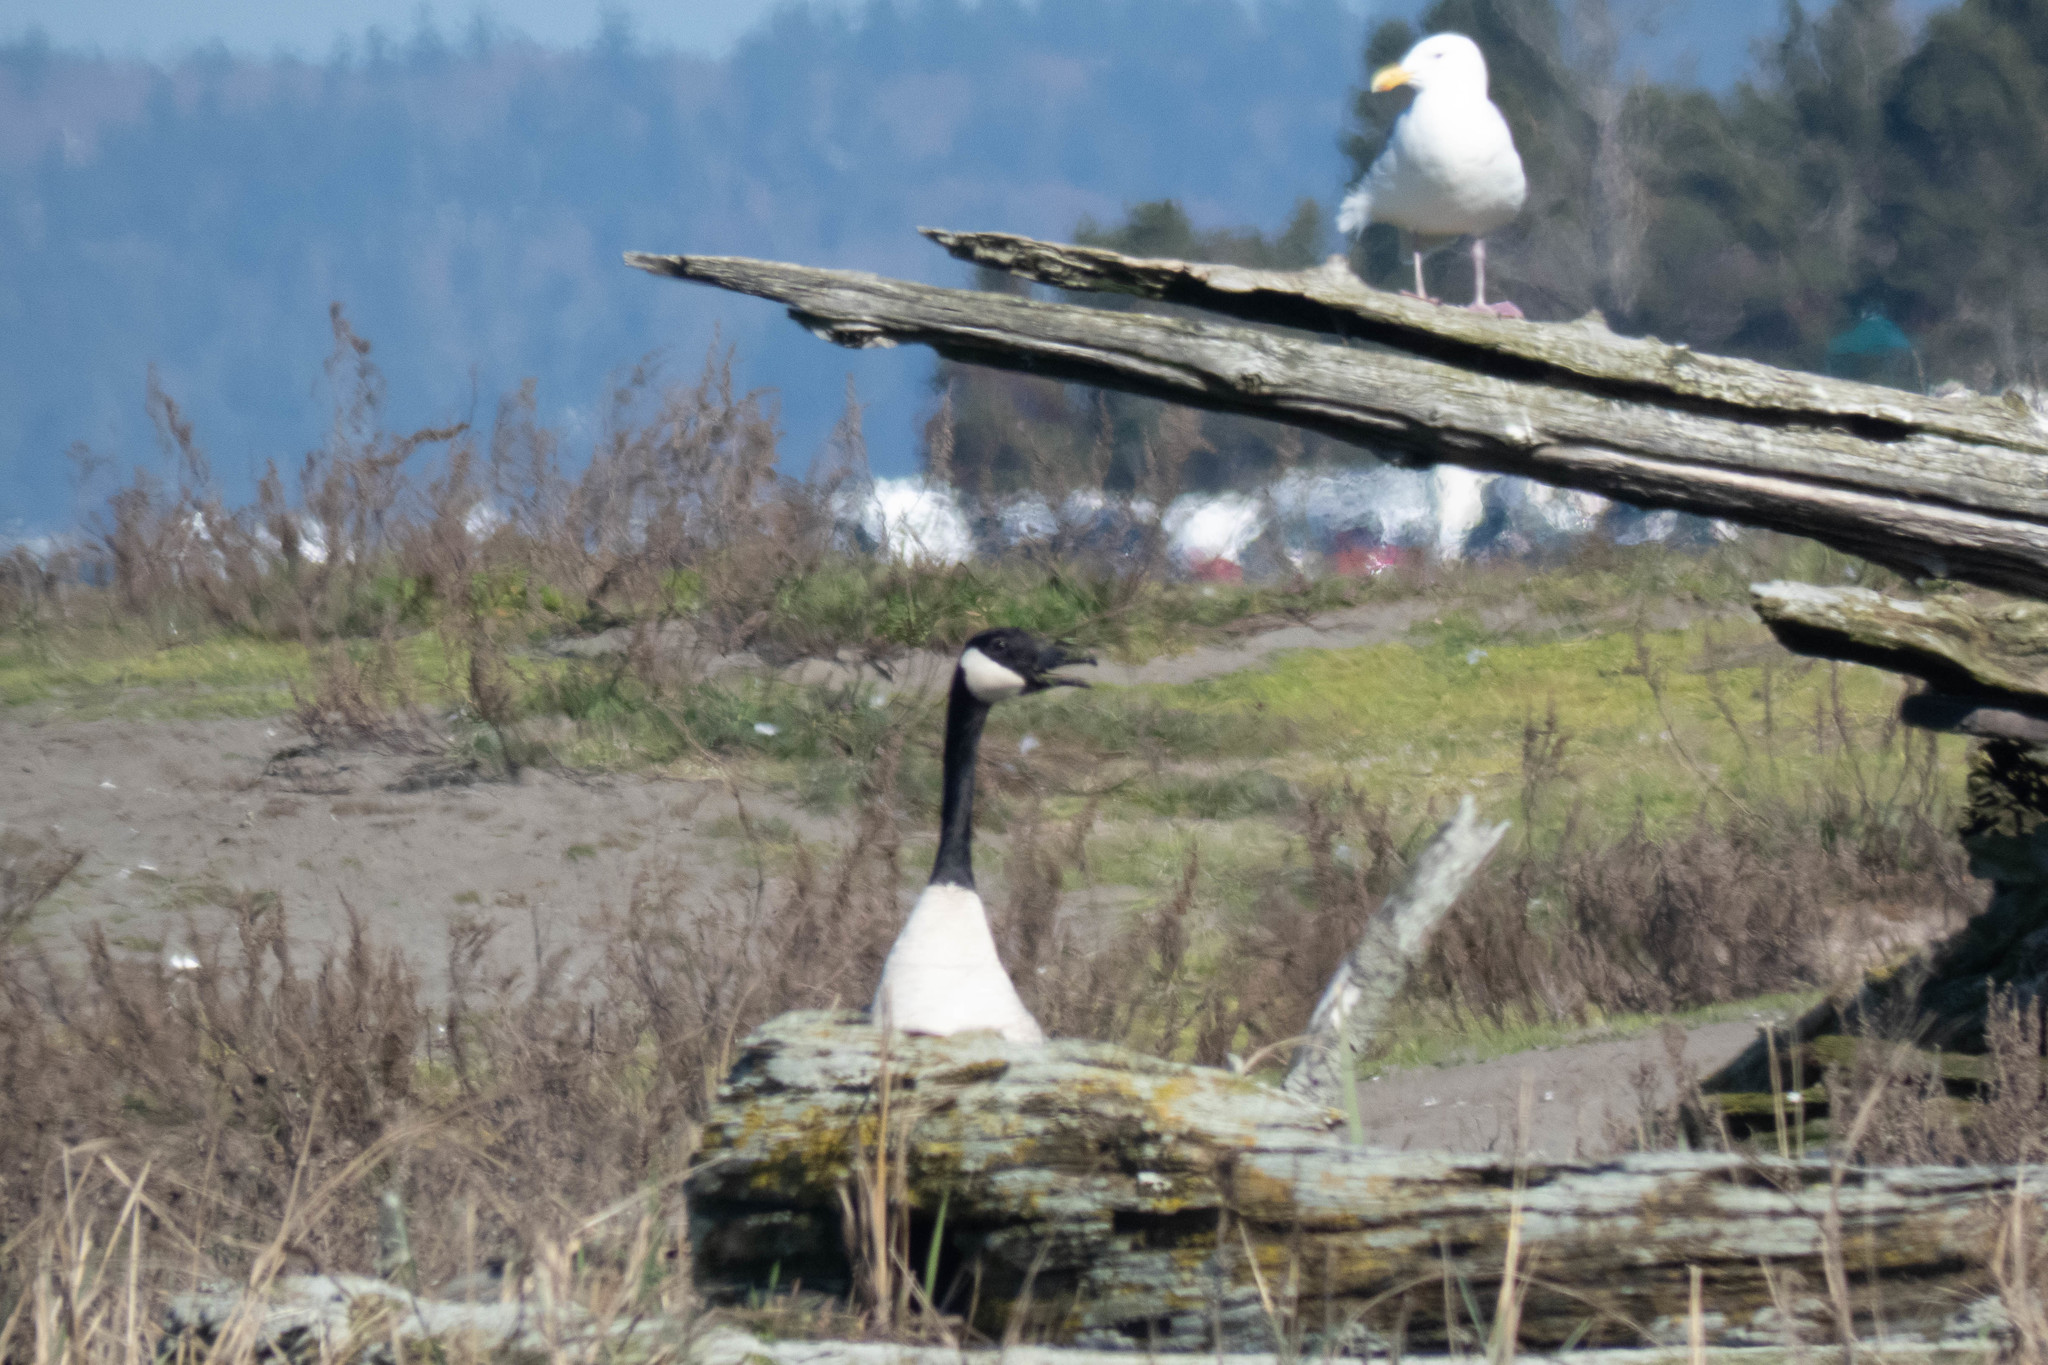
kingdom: Animalia
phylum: Chordata
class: Aves
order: Anseriformes
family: Anatidae
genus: Branta
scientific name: Branta canadensis
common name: Canada goose
